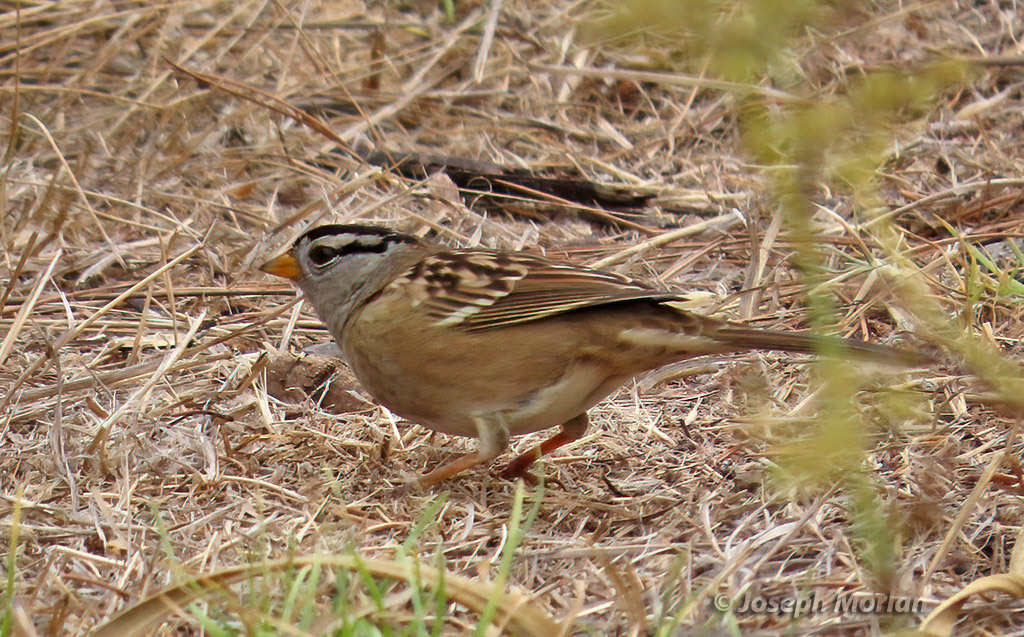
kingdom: Animalia
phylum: Chordata
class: Aves
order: Passeriformes
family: Passerellidae
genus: Zonotrichia
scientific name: Zonotrichia leucophrys
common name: White-crowned sparrow
